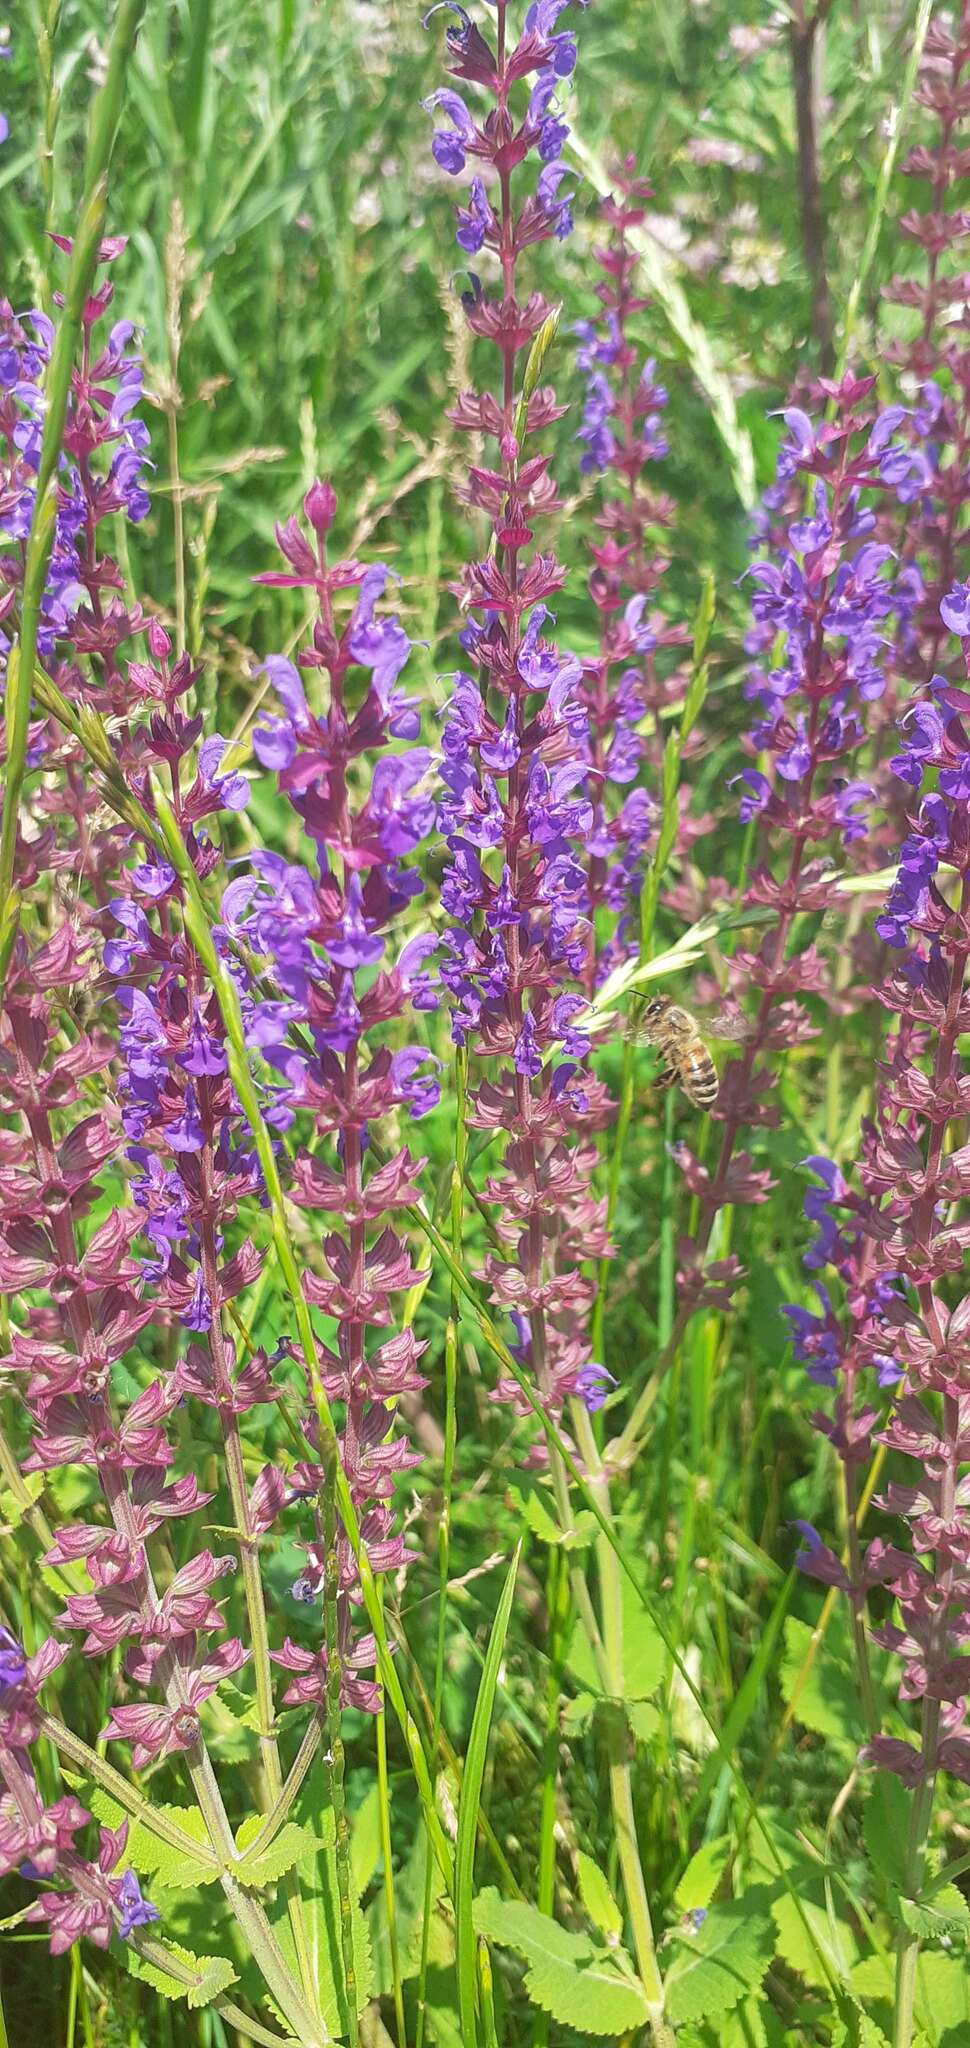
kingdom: Plantae
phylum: Tracheophyta
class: Magnoliopsida
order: Lamiales
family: Lamiaceae
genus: Salvia
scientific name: Salvia nemorosa
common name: Balkan clary
